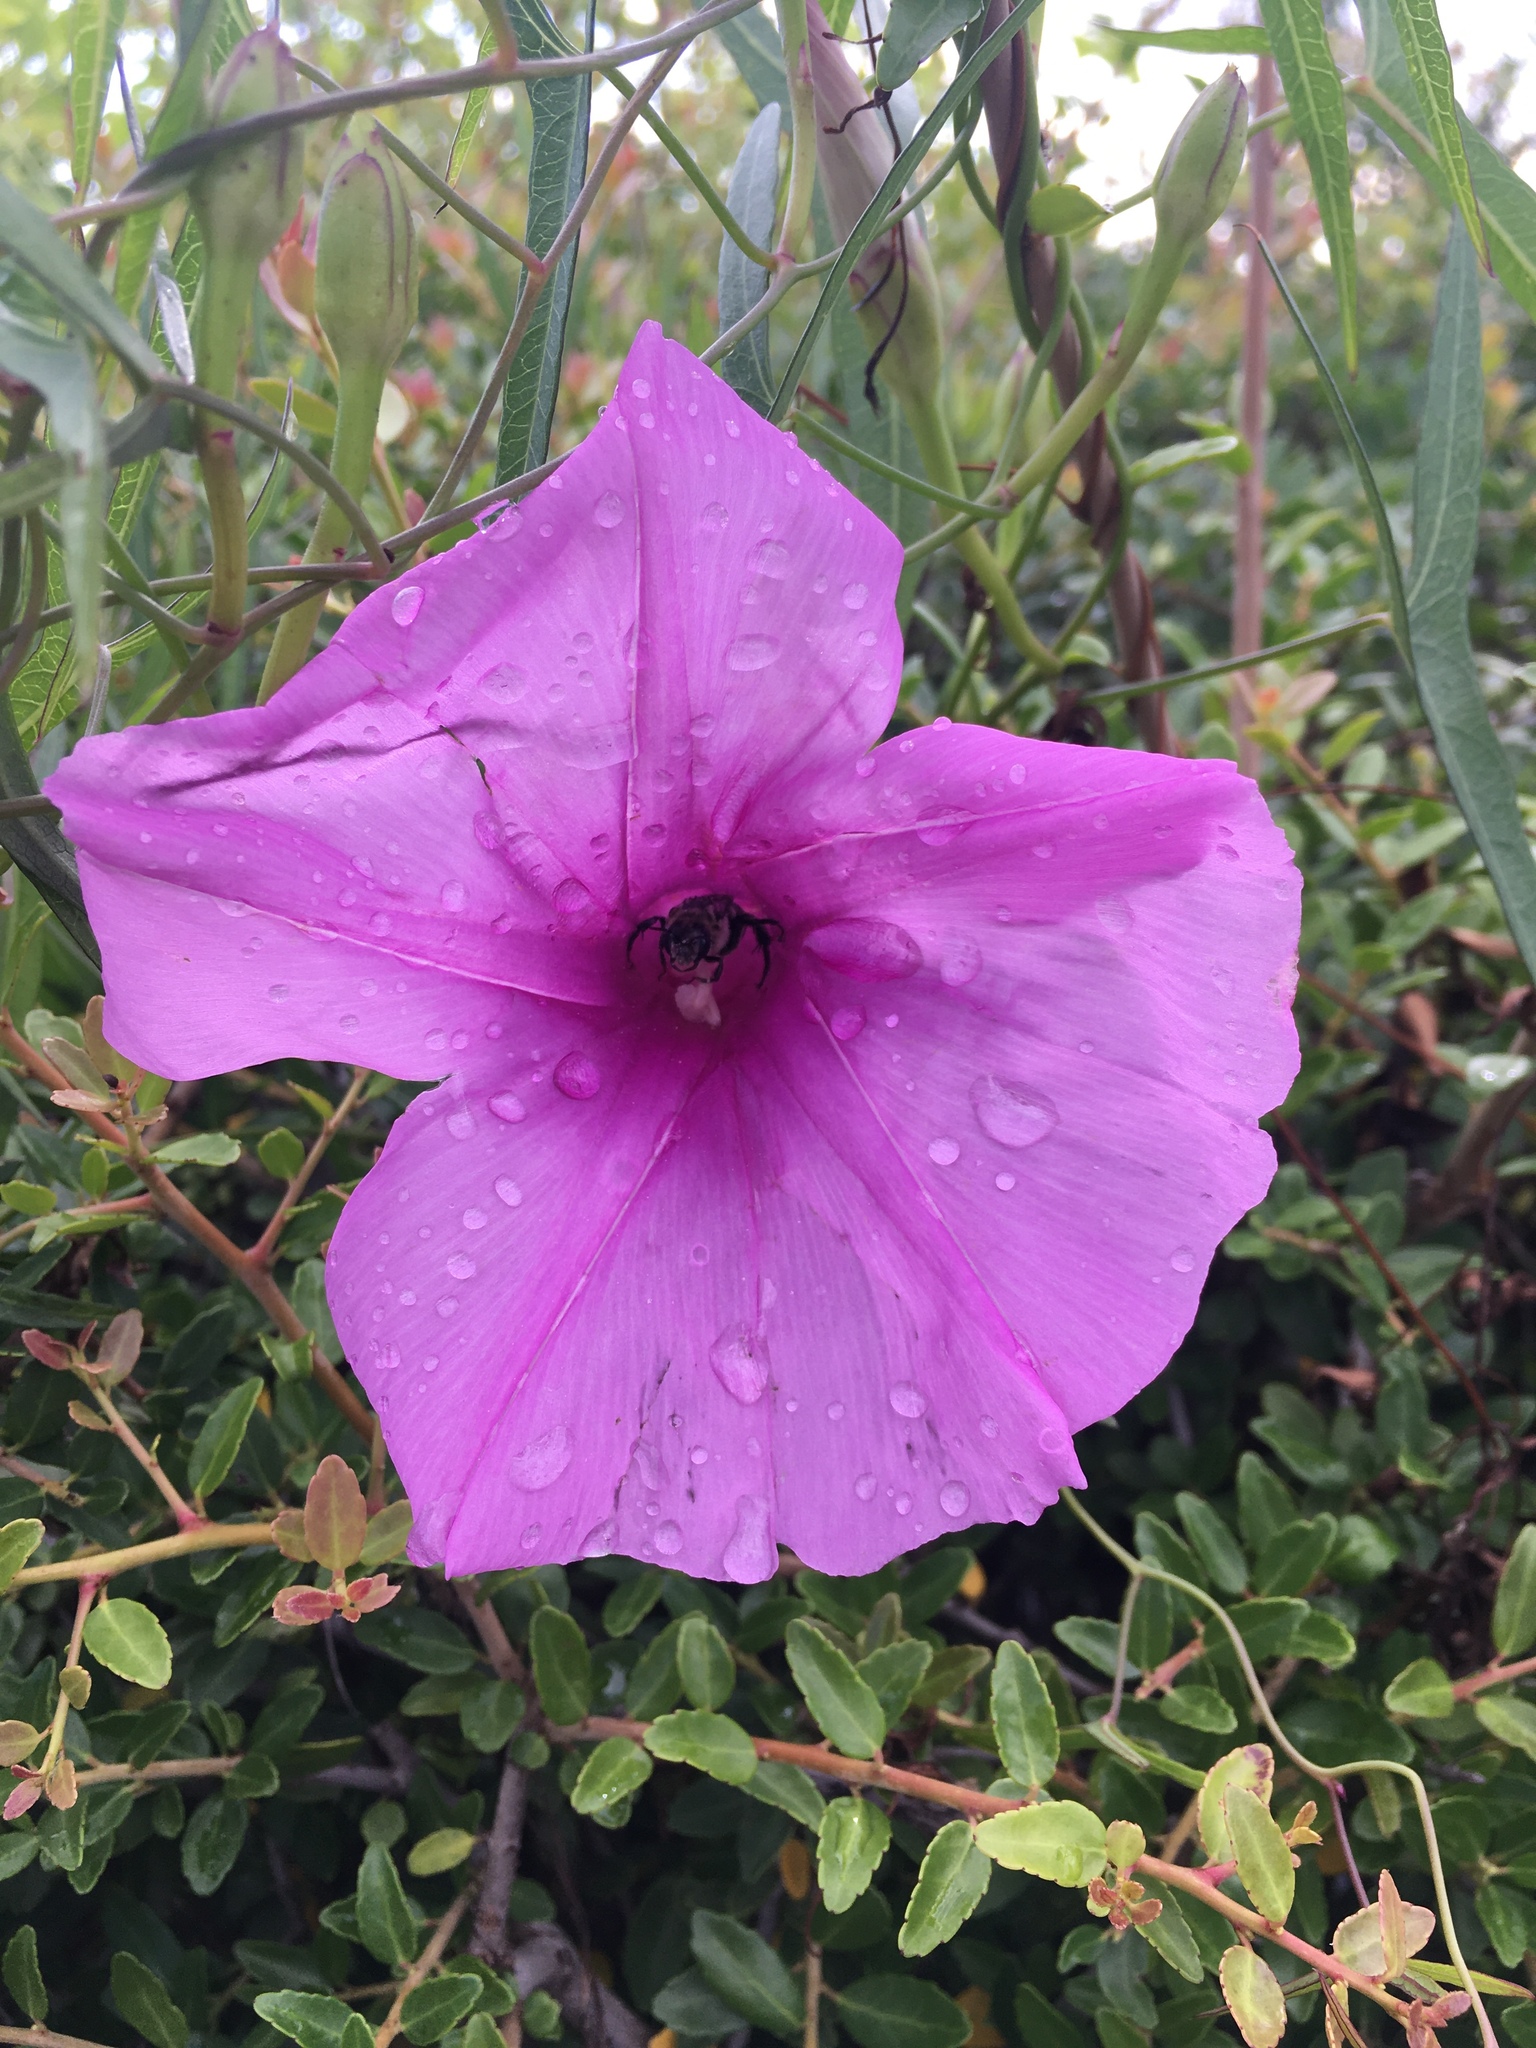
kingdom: Plantae
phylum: Tracheophyta
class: Magnoliopsida
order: Solanales
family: Convolvulaceae
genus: Ipomoea
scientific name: Ipomoea sagittata
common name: Saltmarsh morning glory
